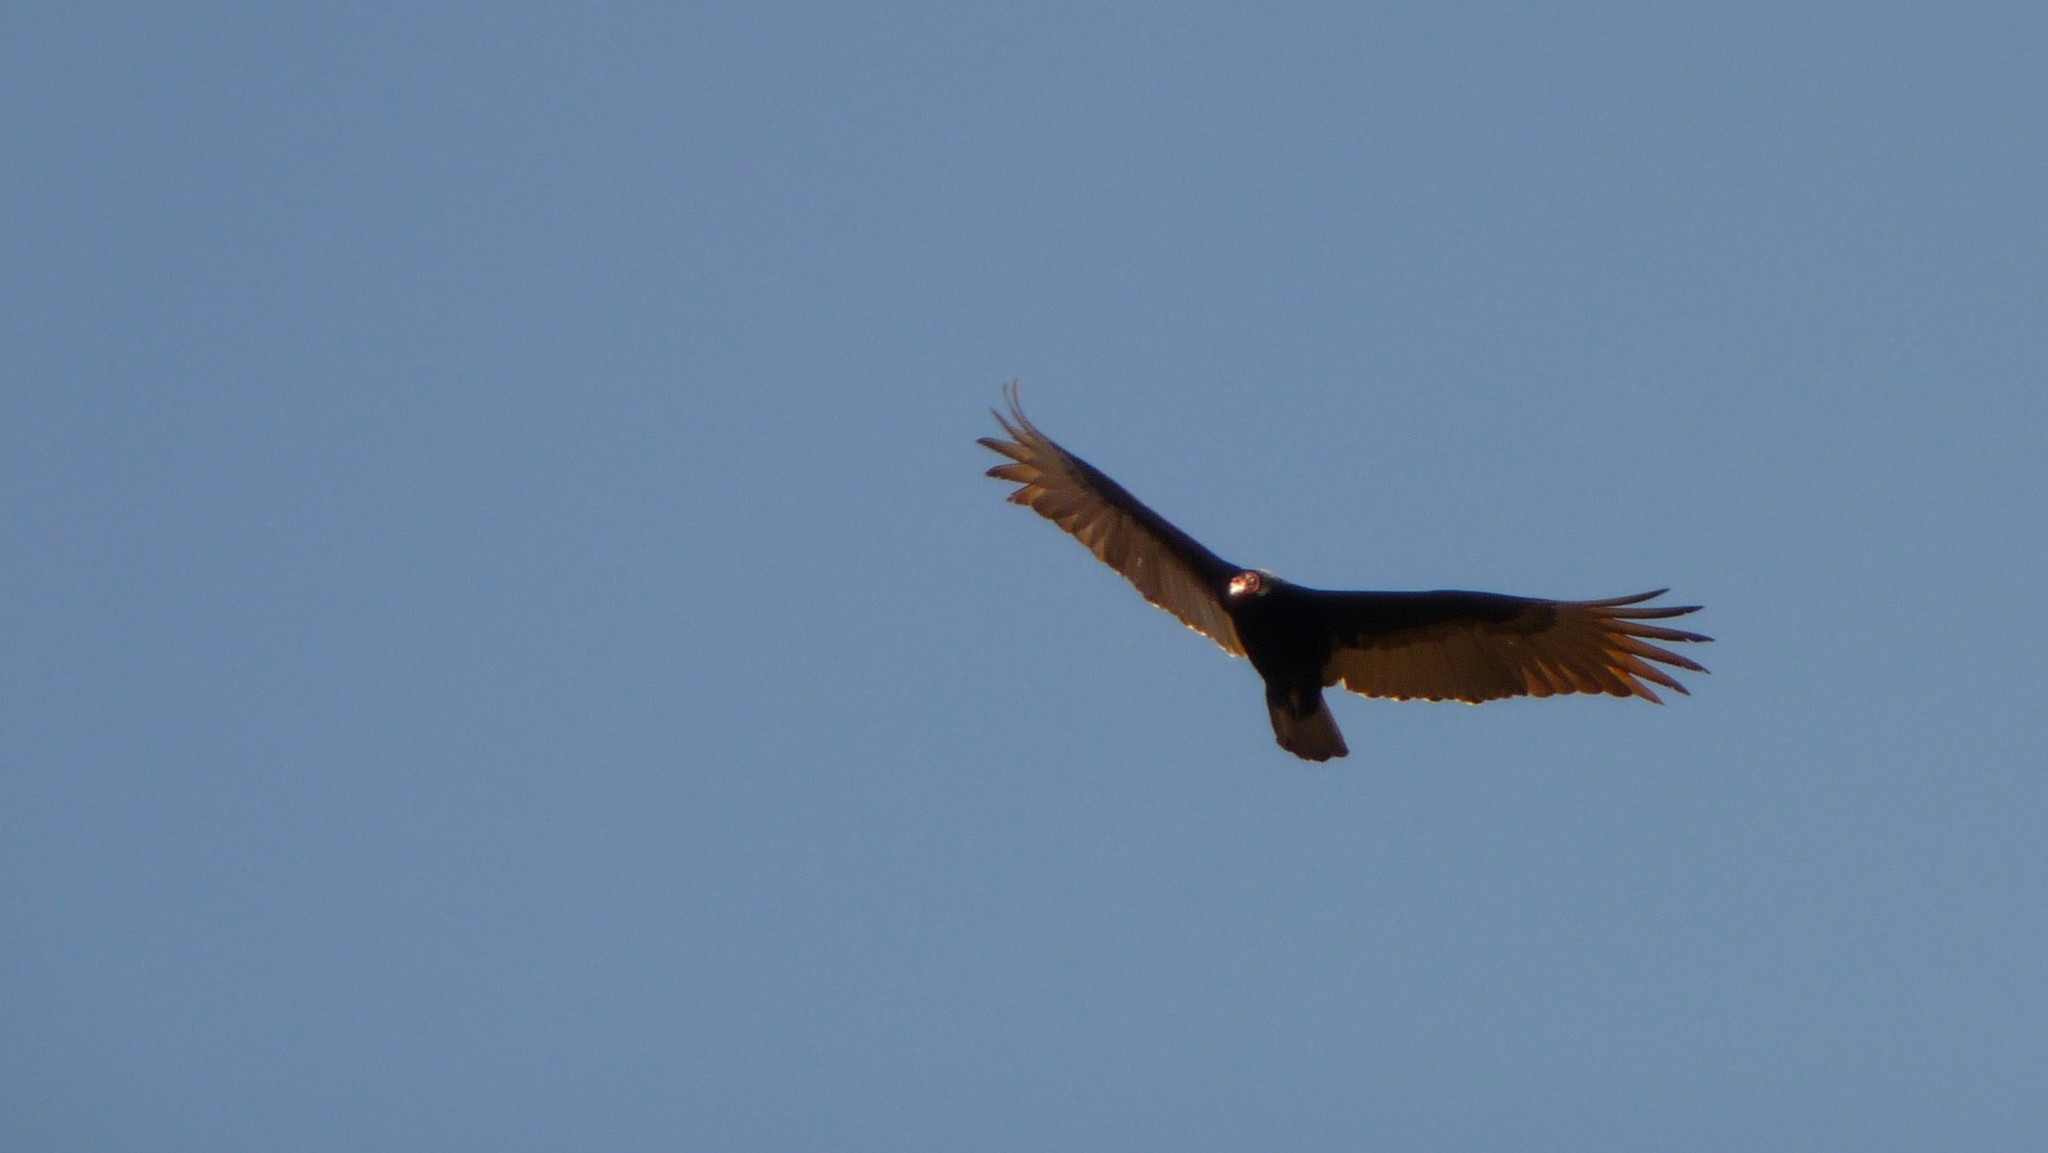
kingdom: Animalia
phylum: Chordata
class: Aves
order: Accipitriformes
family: Cathartidae
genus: Cathartes
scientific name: Cathartes aura
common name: Turkey vulture
